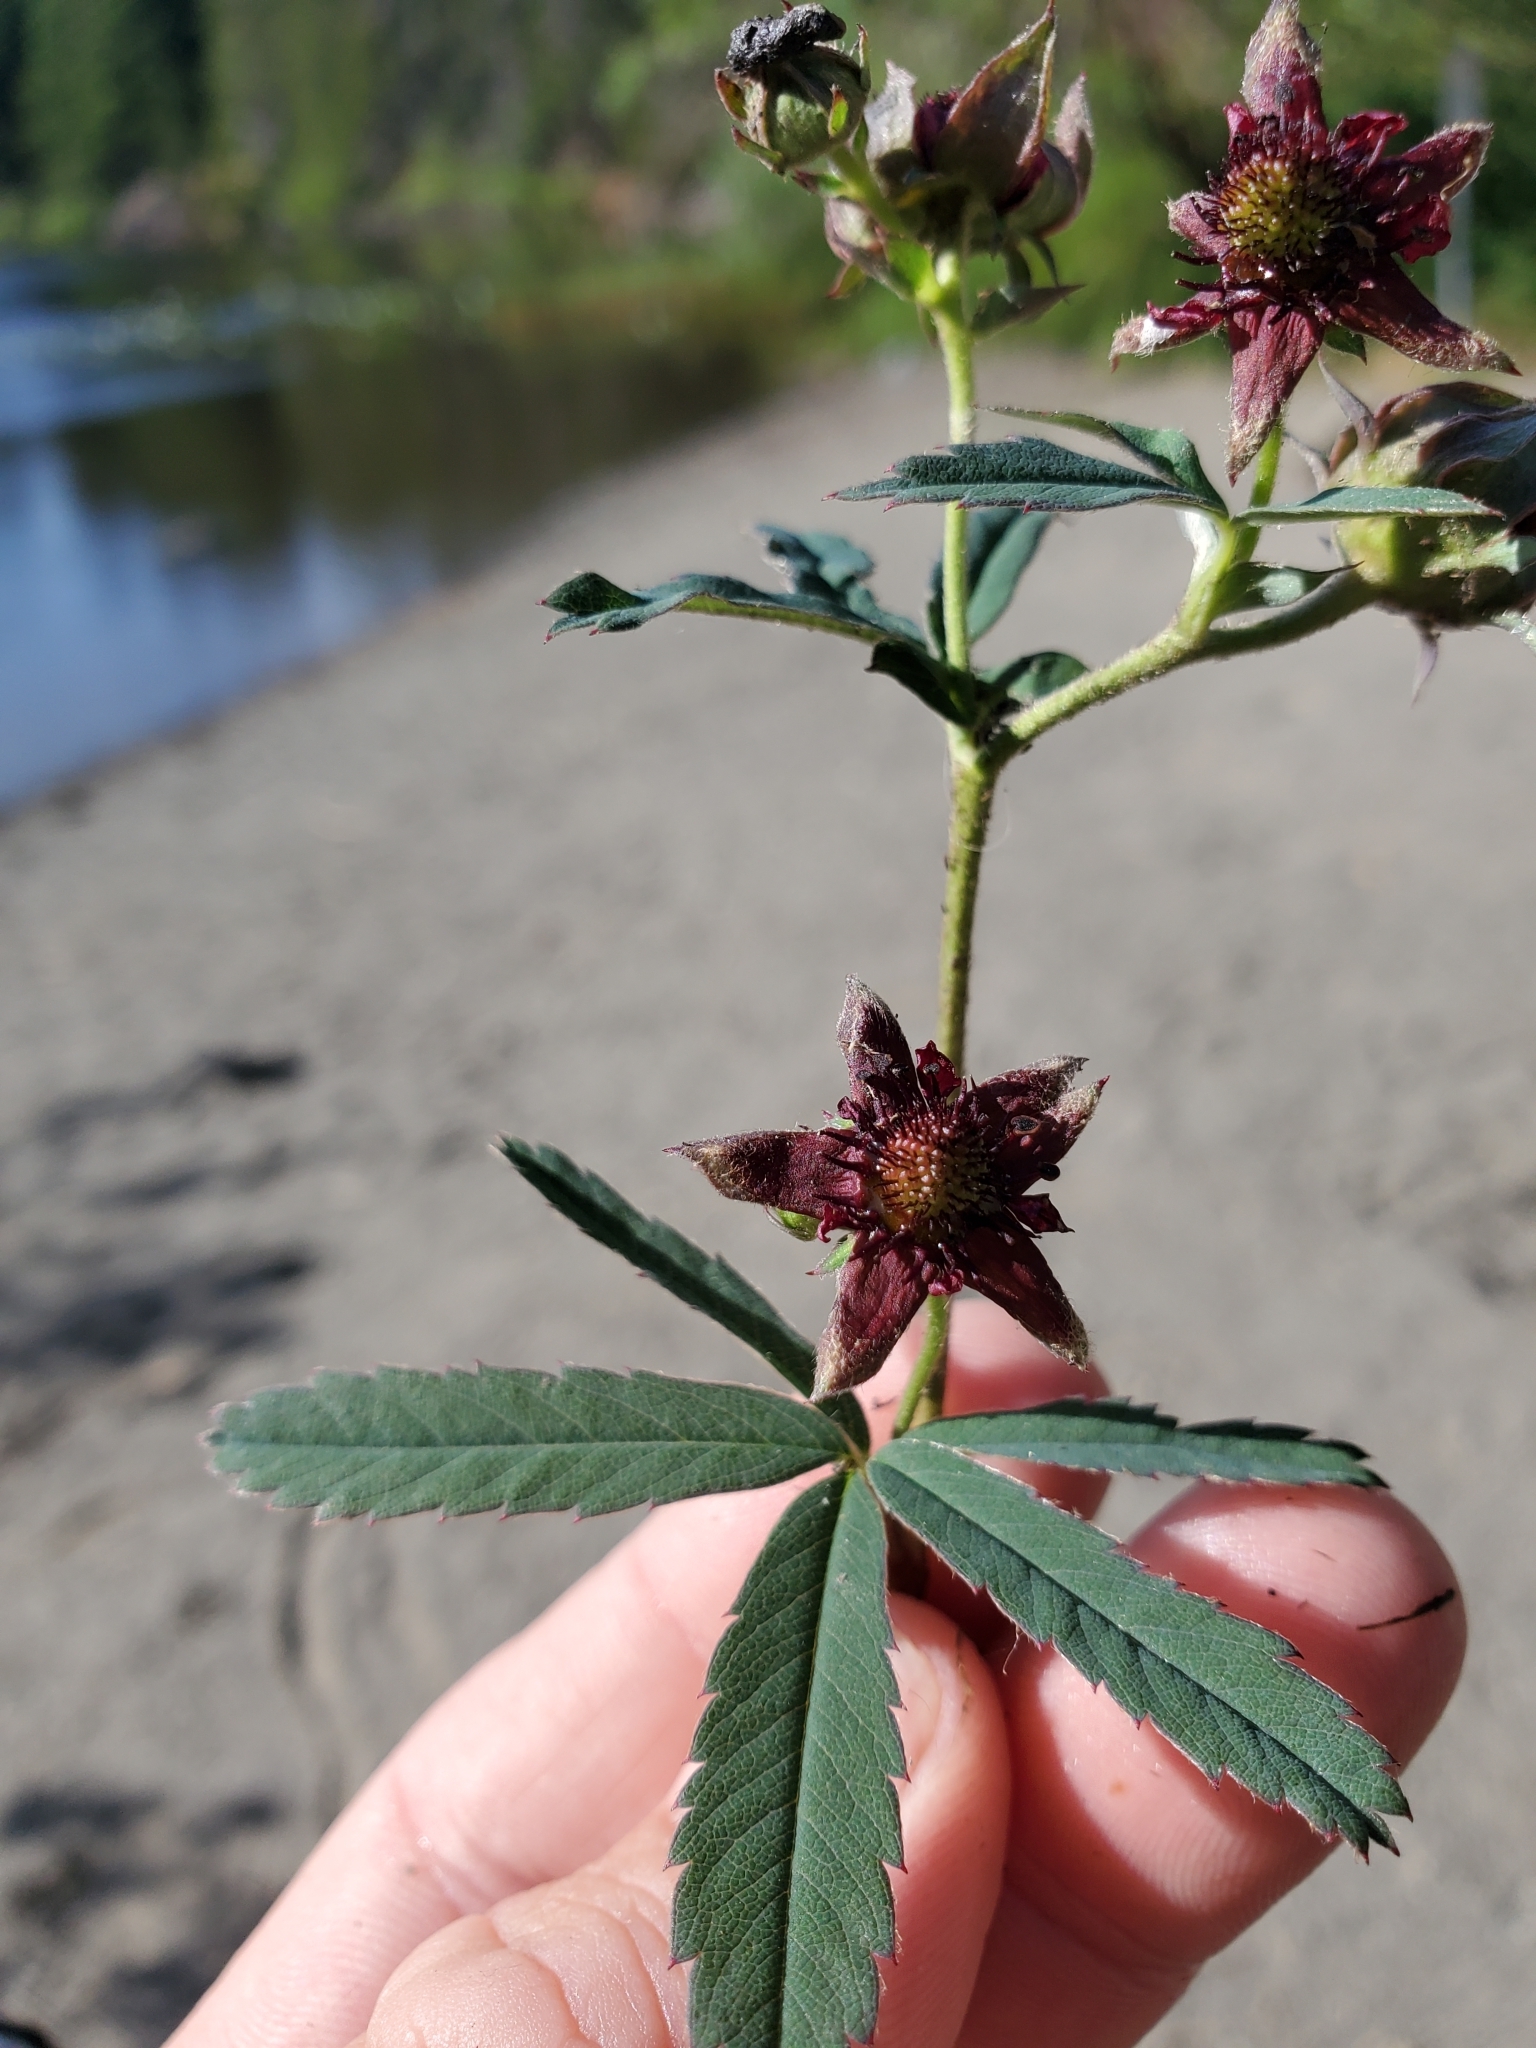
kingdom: Plantae
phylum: Tracheophyta
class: Magnoliopsida
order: Rosales
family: Rosaceae
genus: Comarum
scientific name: Comarum palustre
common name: Marsh cinquefoil
